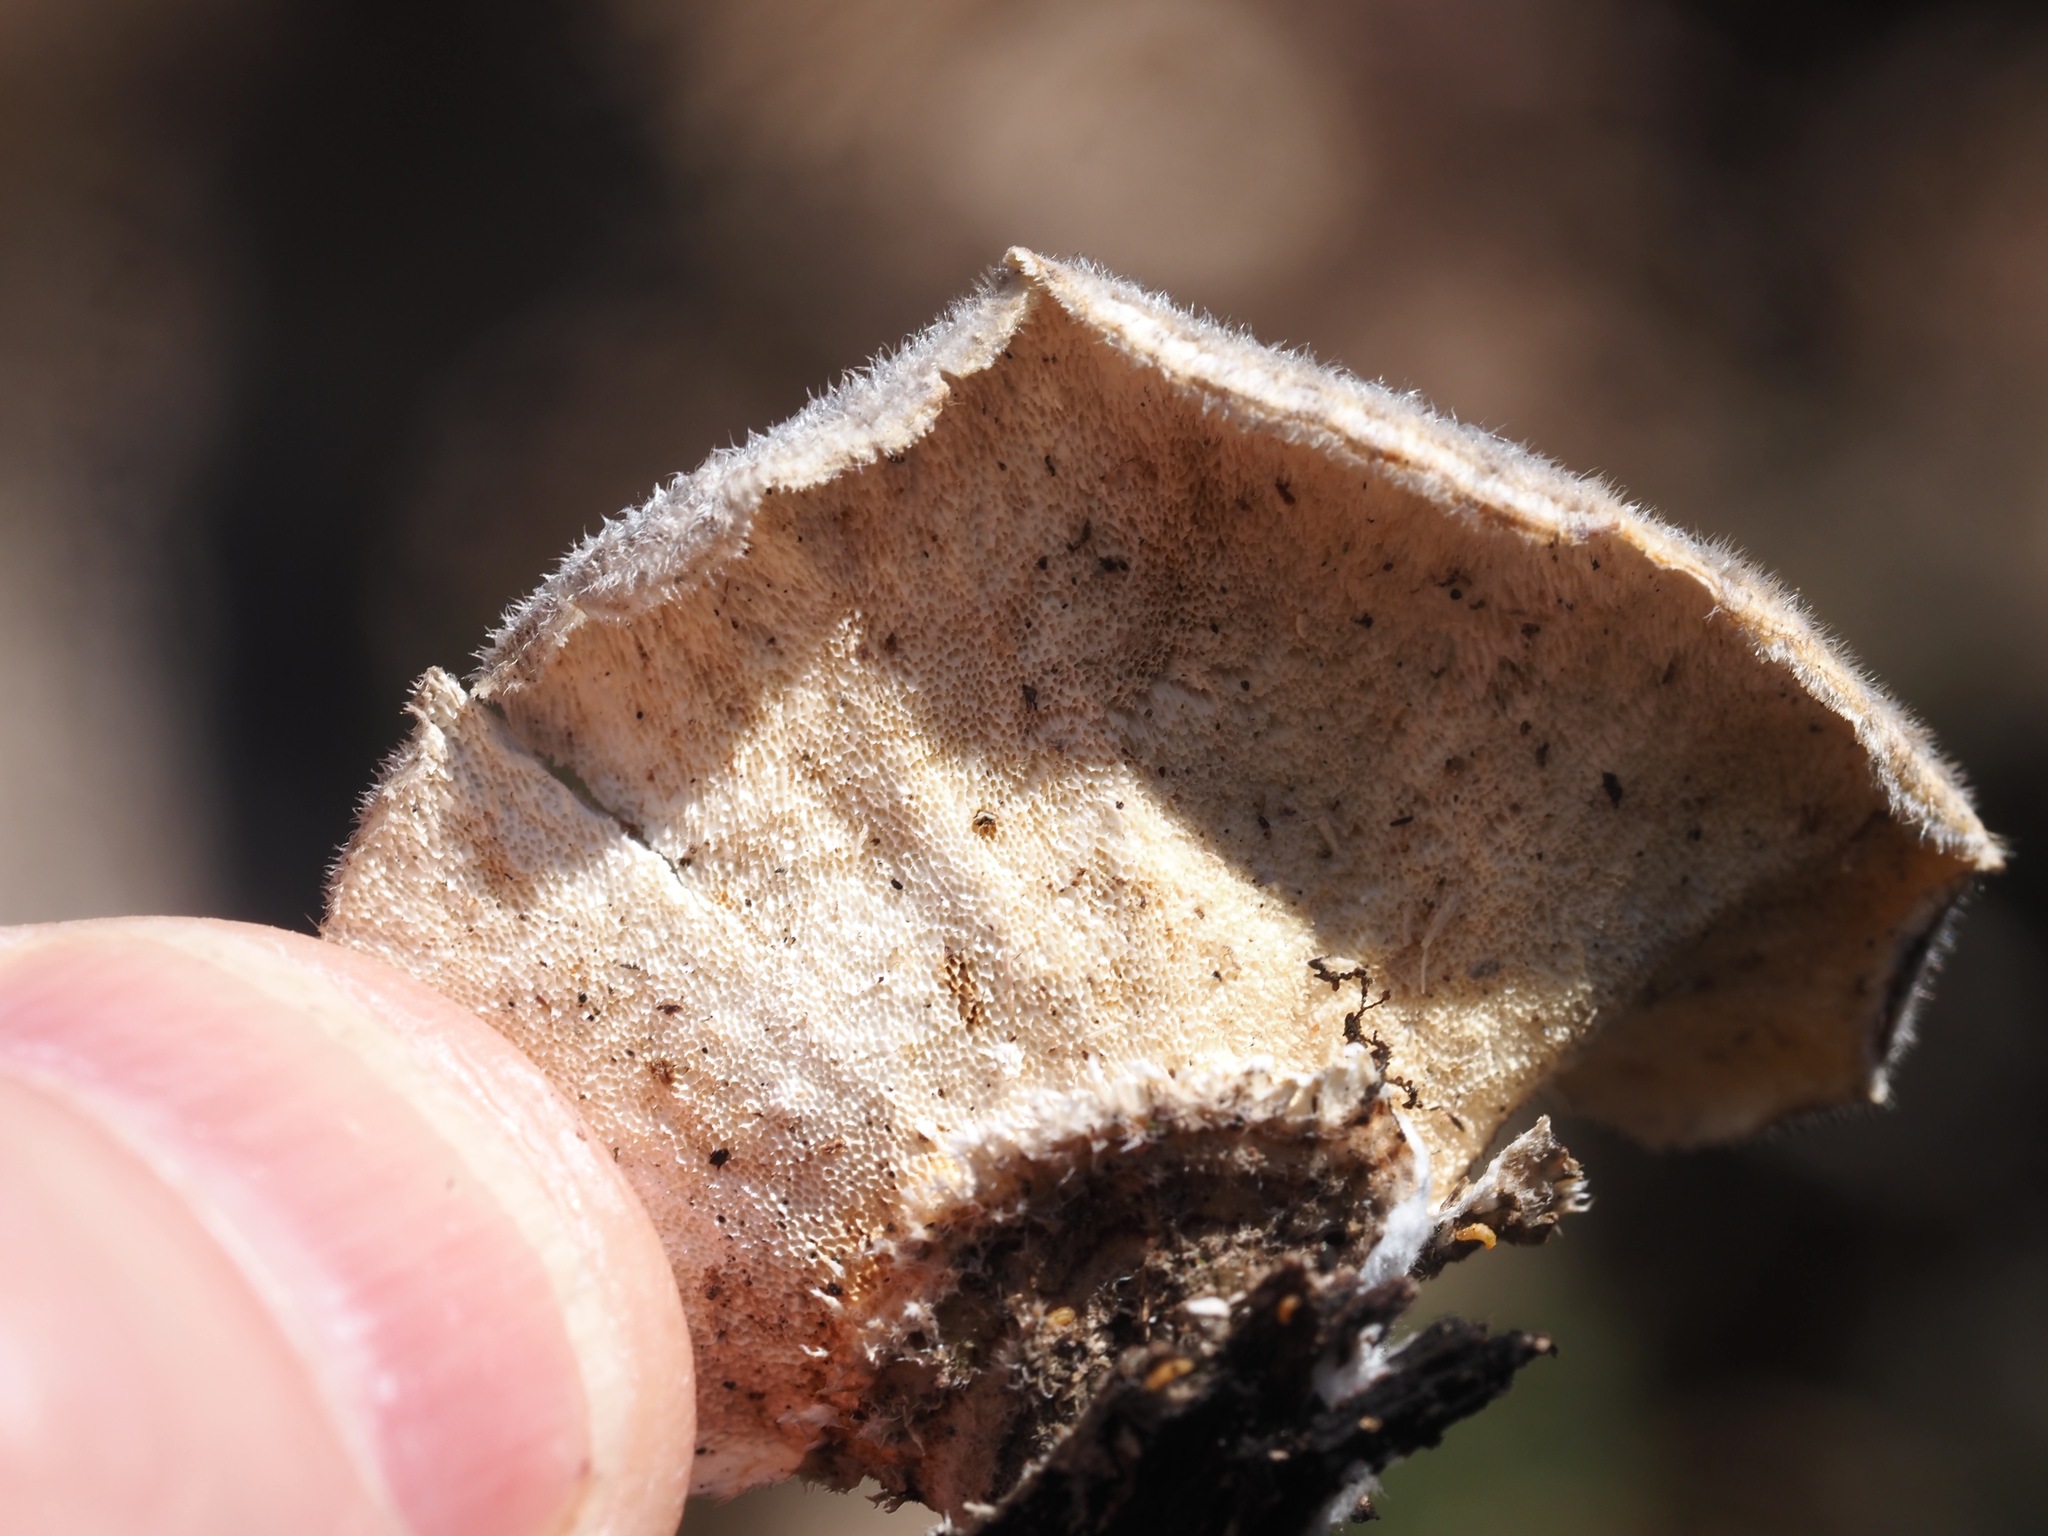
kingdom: Fungi
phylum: Basidiomycota
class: Agaricomycetes
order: Polyporales
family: Polyporaceae
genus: Trametes
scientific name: Trametes versicolor
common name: Turkeytail
